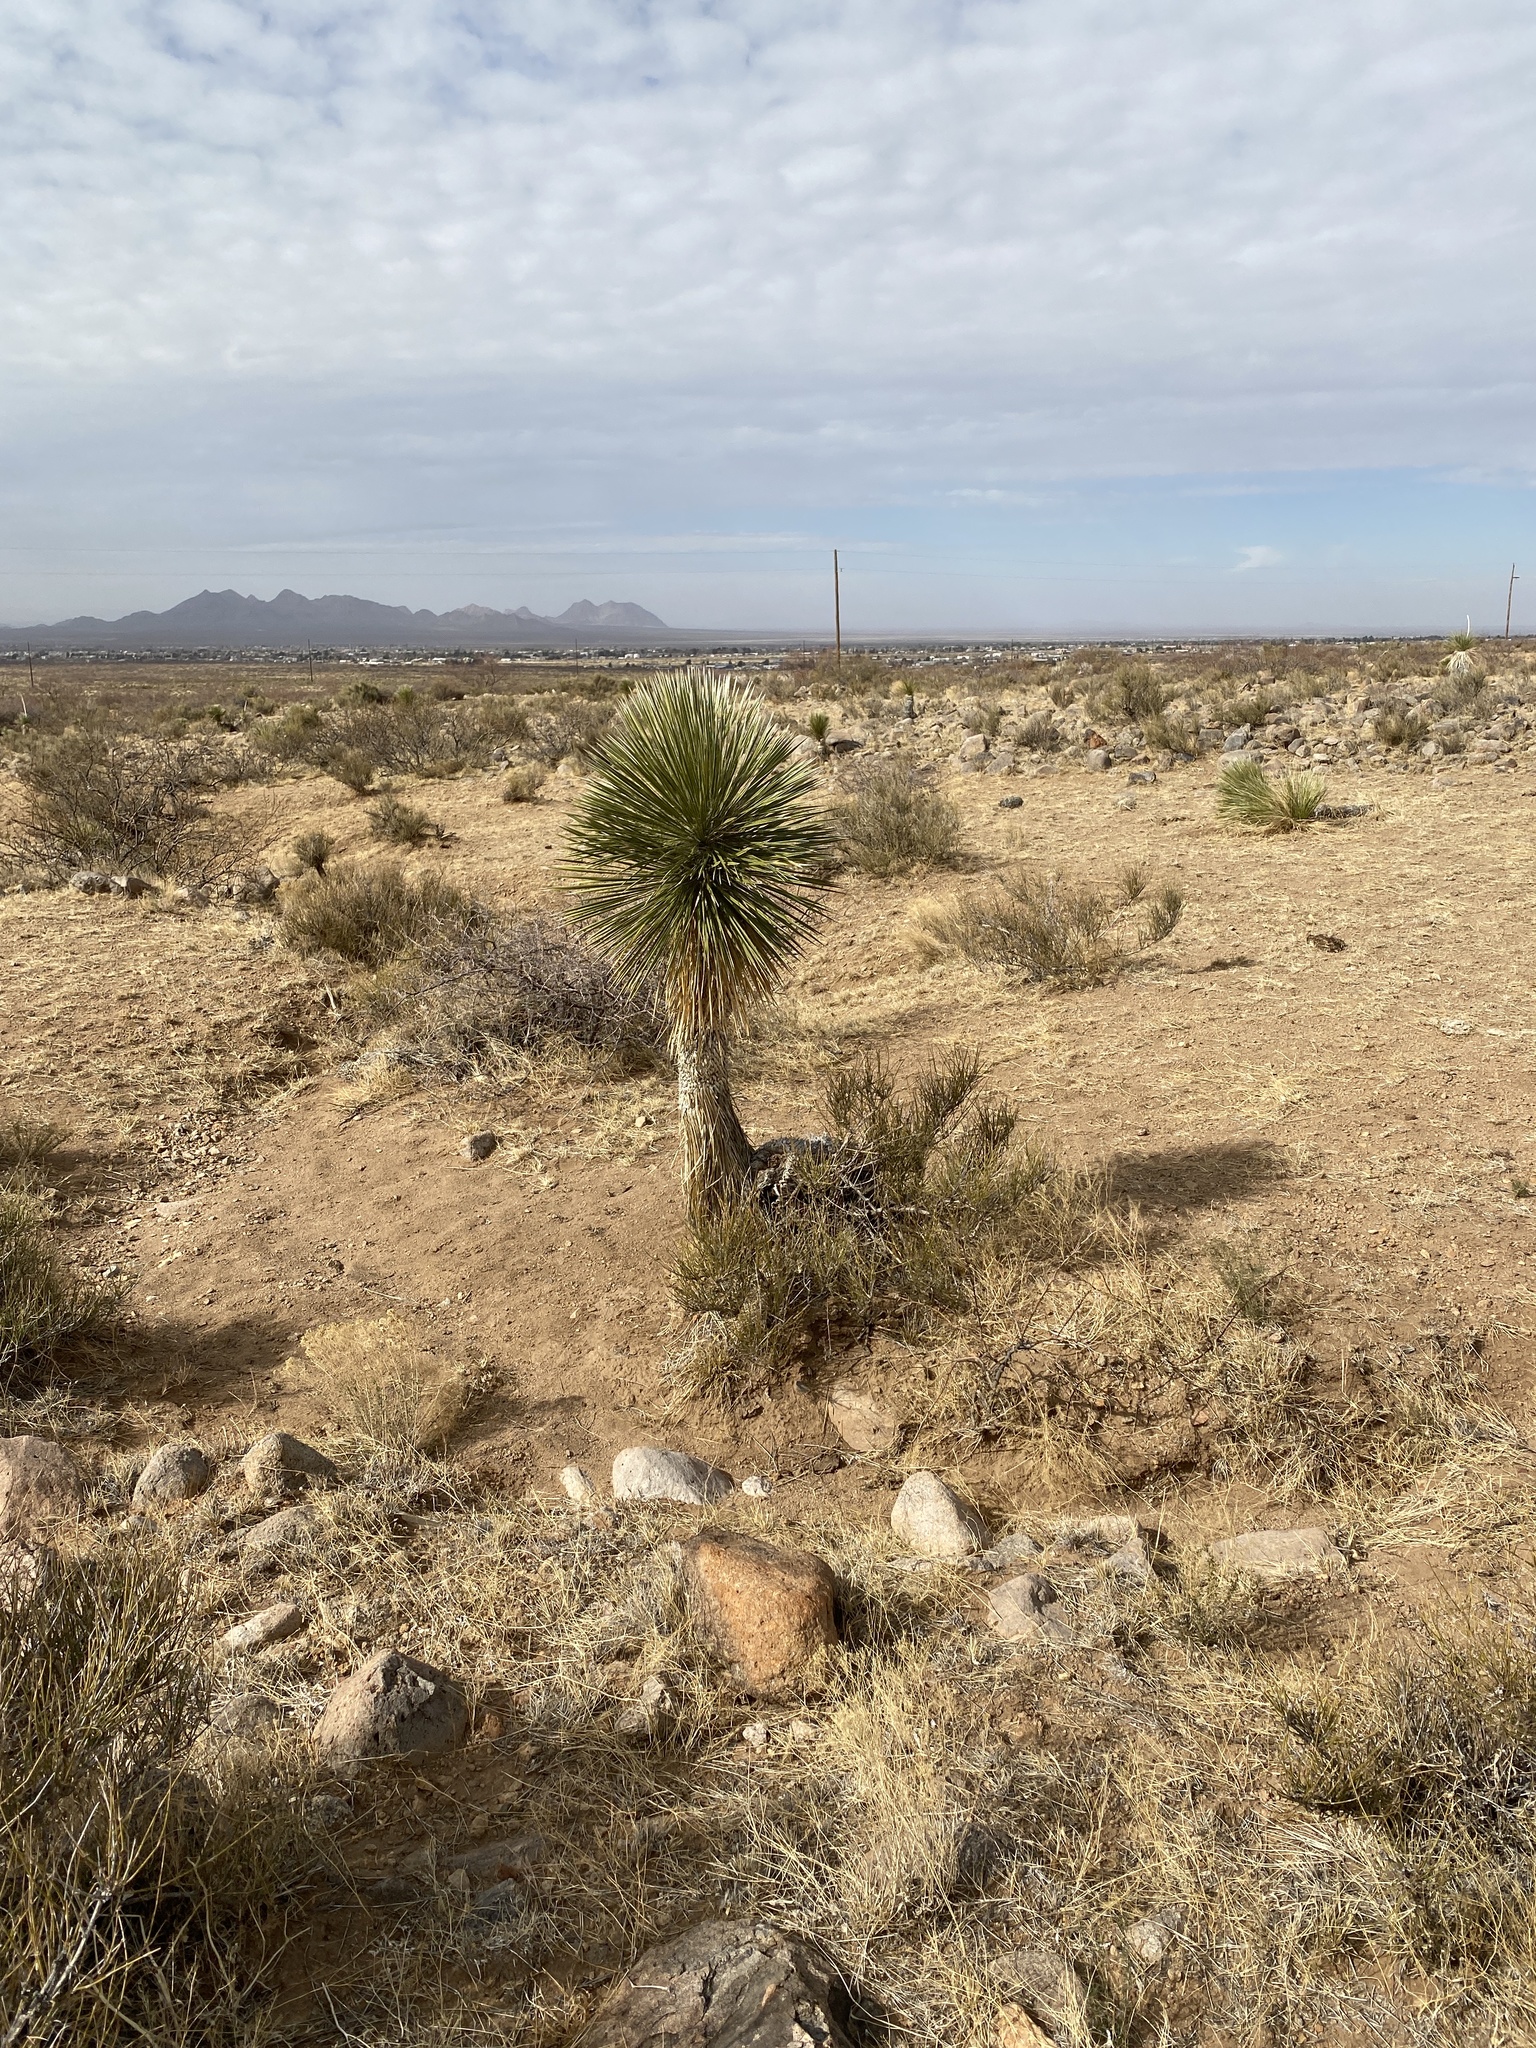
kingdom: Plantae
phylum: Tracheophyta
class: Liliopsida
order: Asparagales
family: Asparagaceae
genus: Yucca
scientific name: Yucca elata
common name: Palmella
